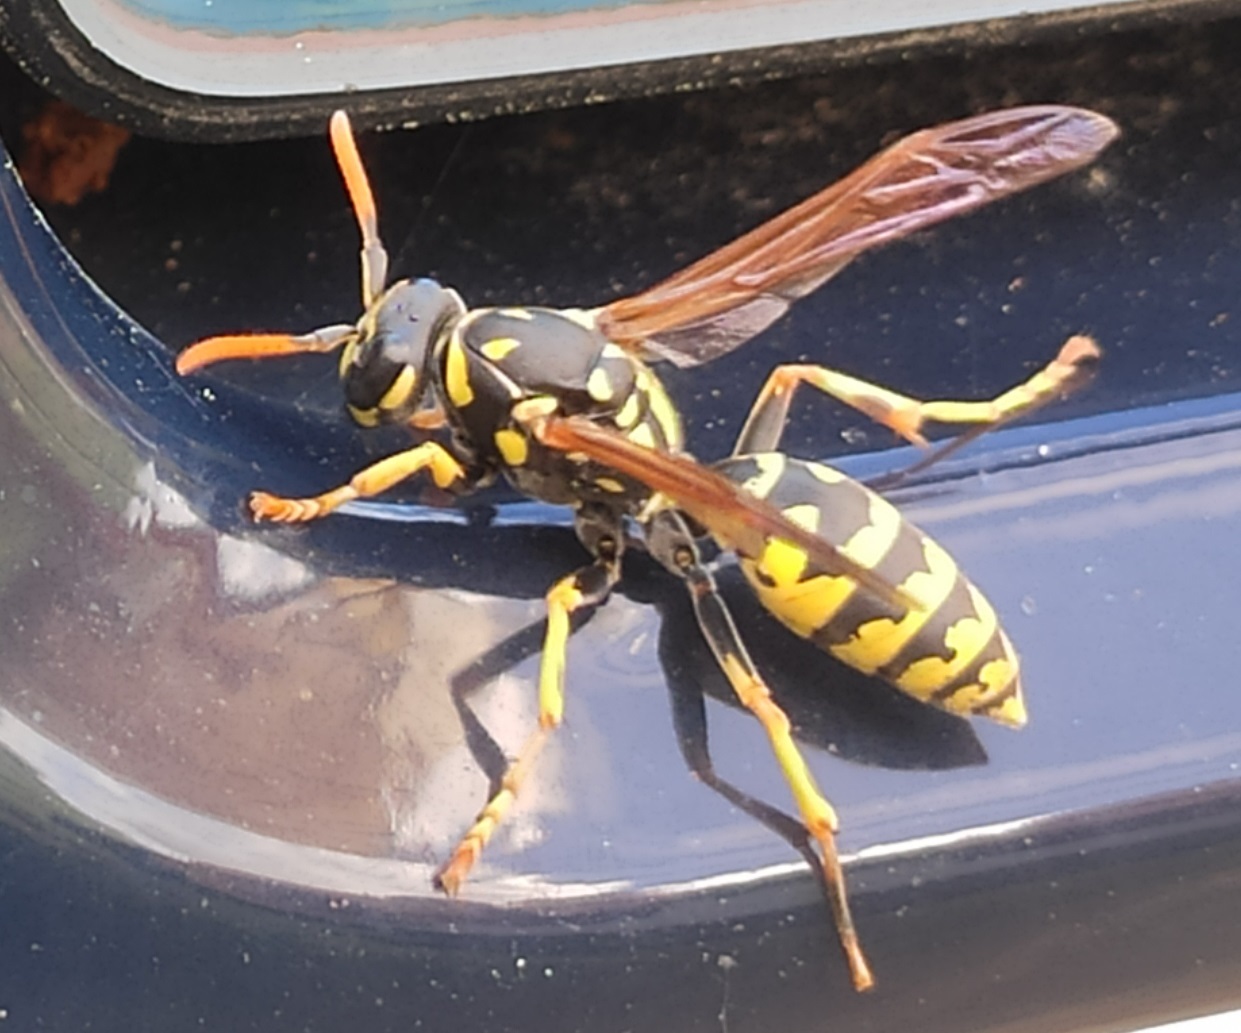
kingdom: Animalia
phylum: Arthropoda
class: Insecta
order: Hymenoptera
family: Eumenidae
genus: Polistes
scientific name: Polistes dominula
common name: Paper wasp
